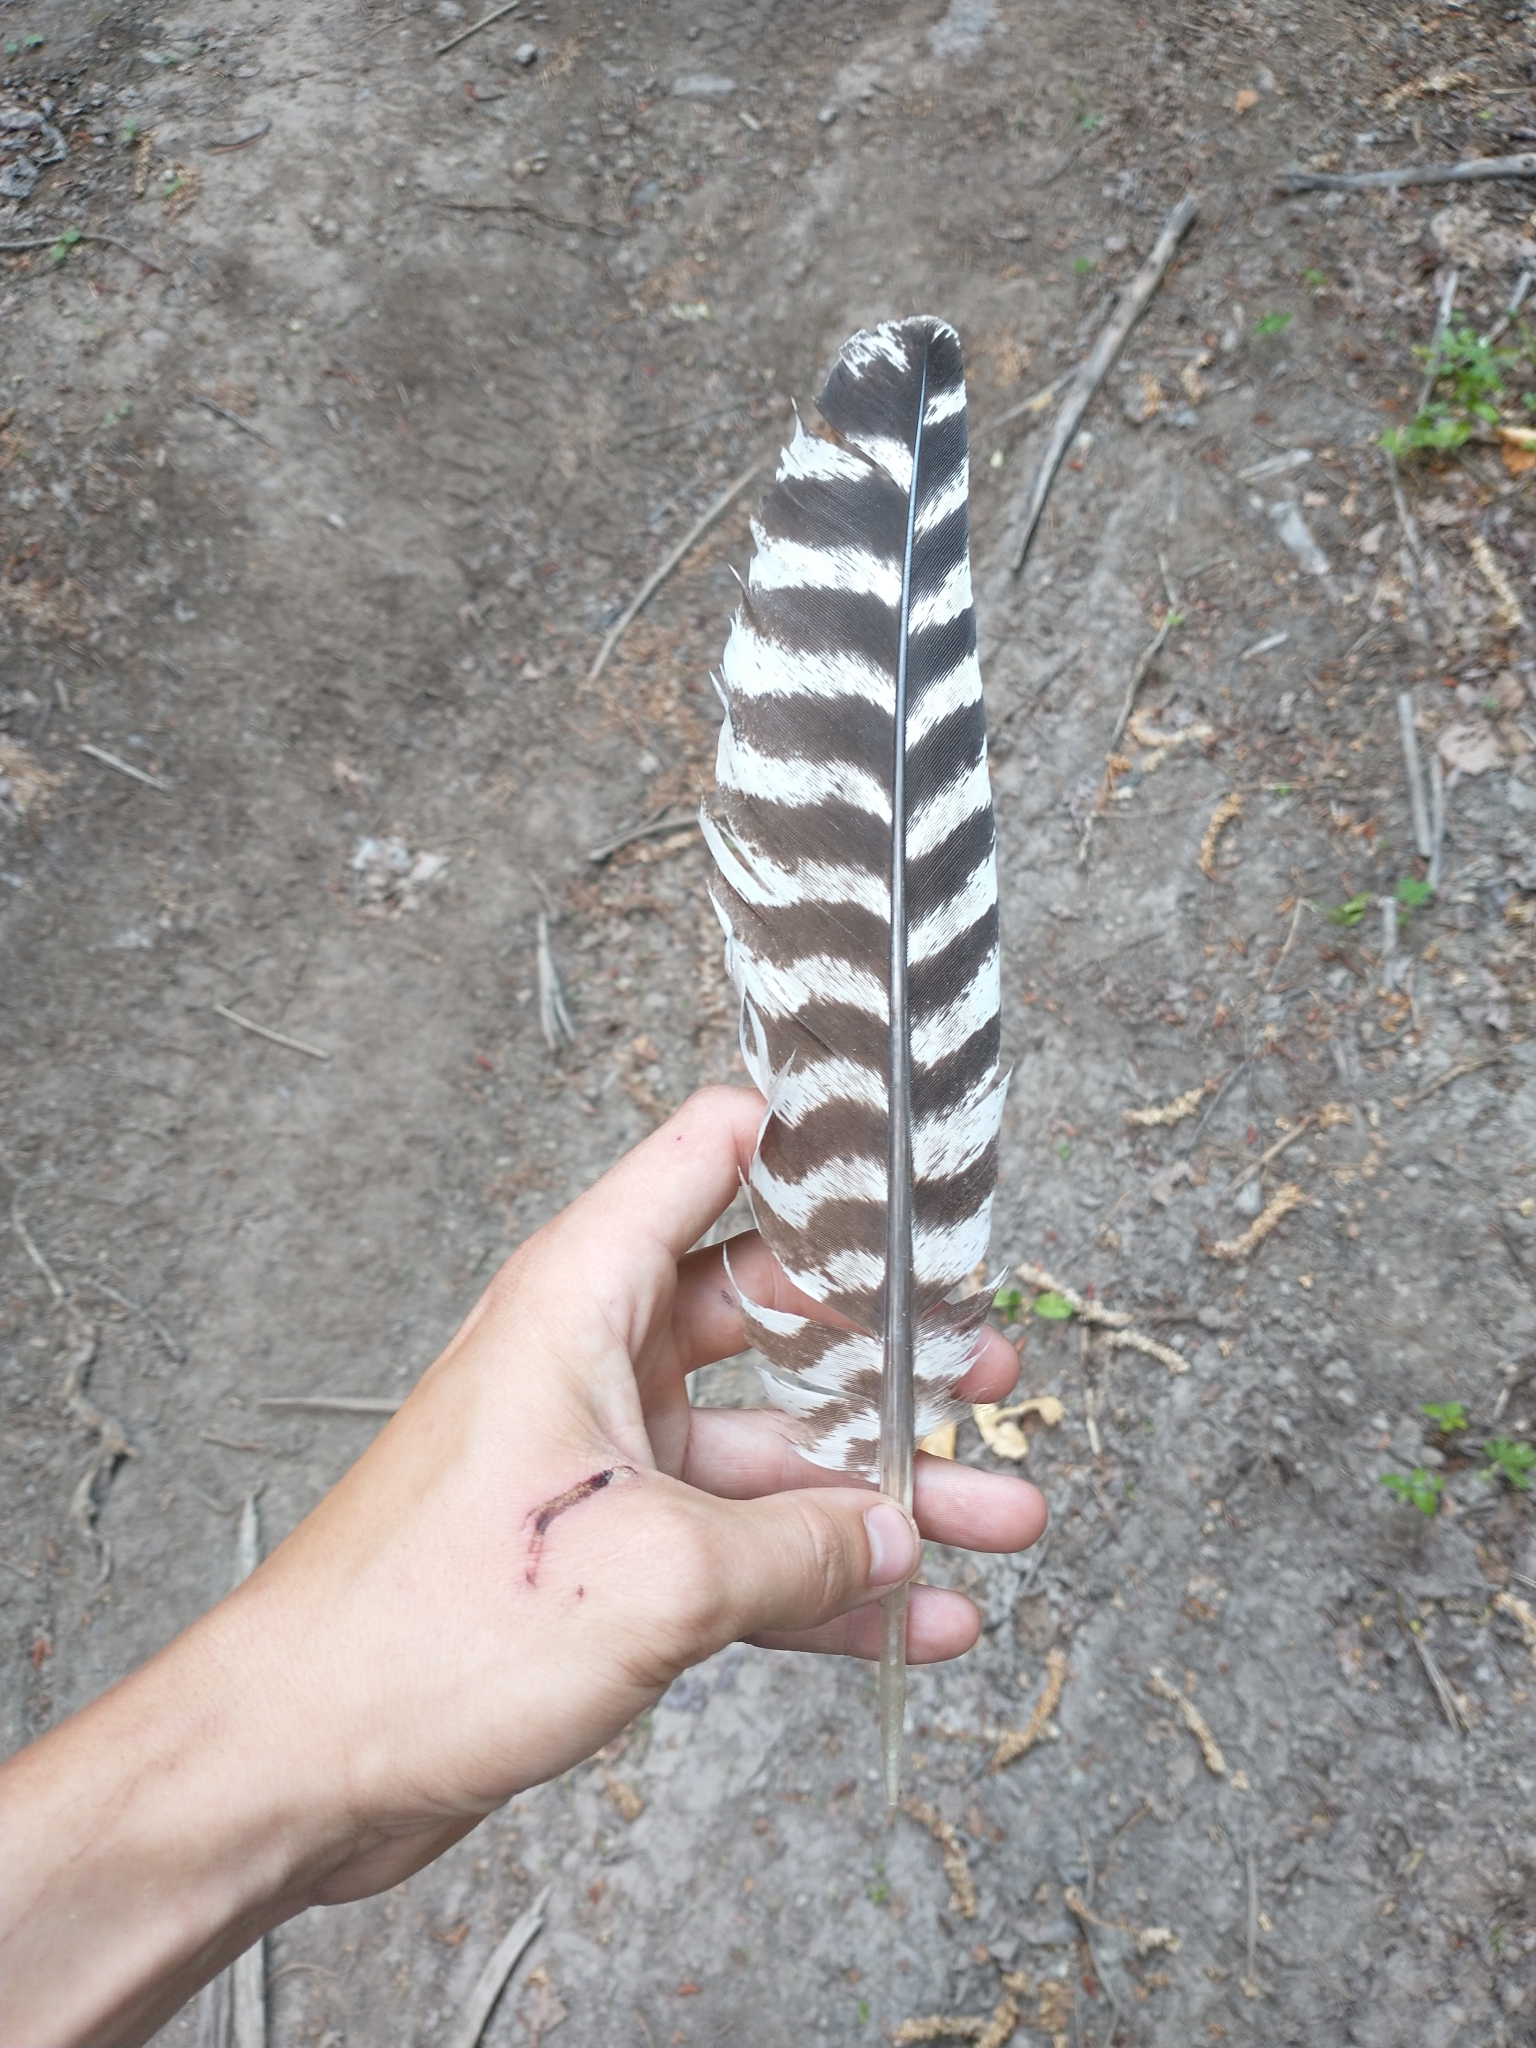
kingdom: Animalia
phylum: Chordata
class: Aves
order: Galliformes
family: Phasianidae
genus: Meleagris
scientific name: Meleagris gallopavo
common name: Wild turkey
